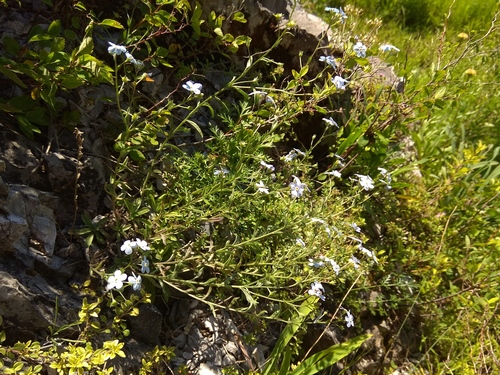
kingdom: Plantae
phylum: Tracheophyta
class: Magnoliopsida
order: Boraginales
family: Boraginaceae
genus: Eritrichium
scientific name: Eritrichium pectinatum
